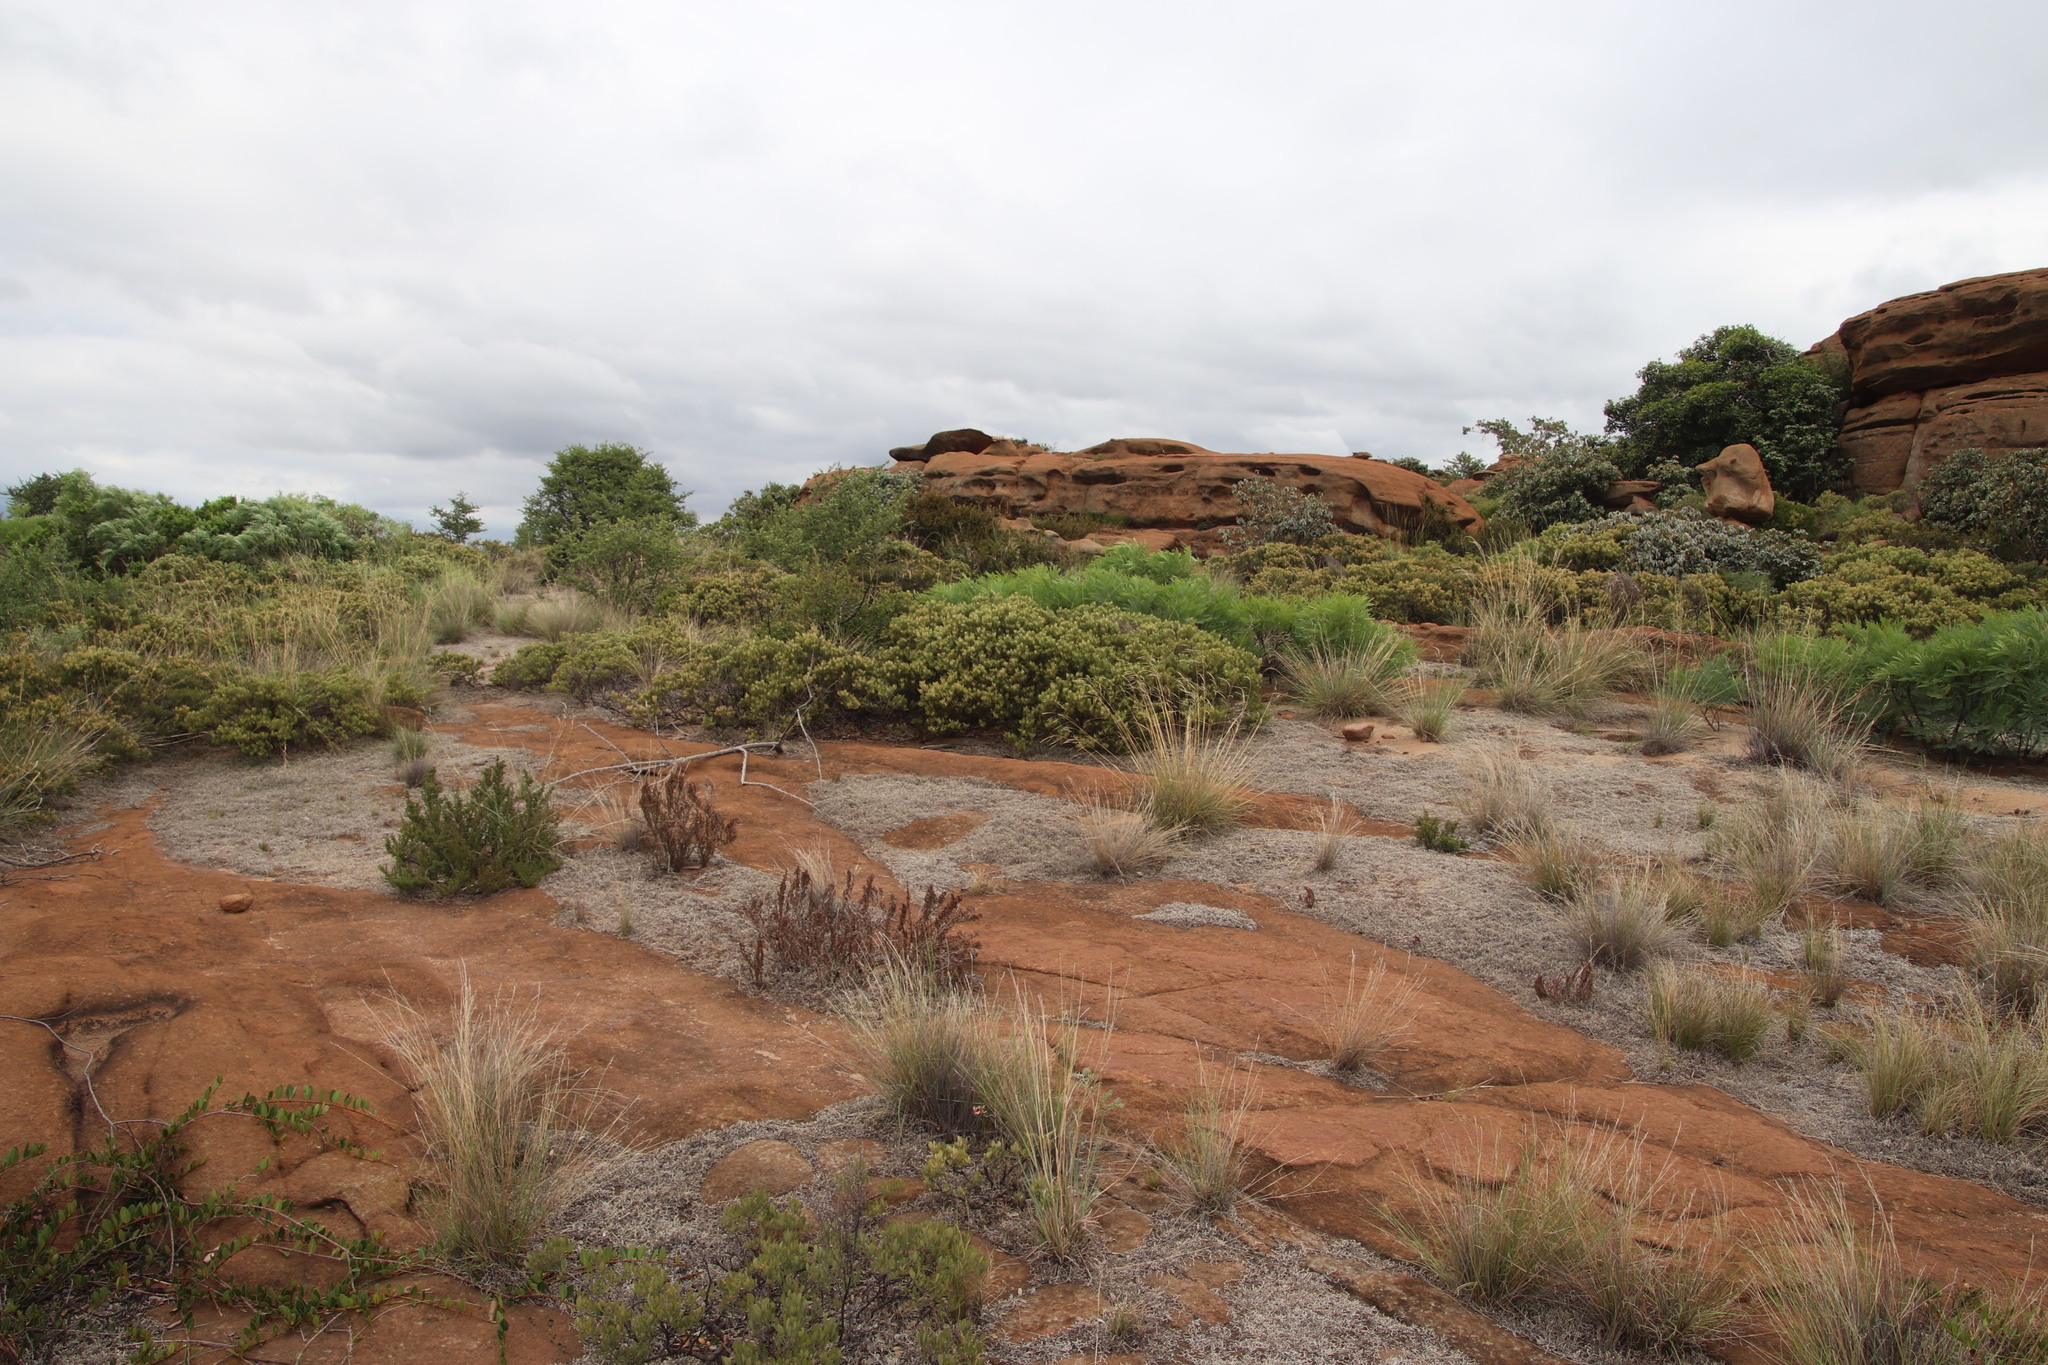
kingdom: Plantae
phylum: Tracheophyta
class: Lycopodiopsida
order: Selaginellales
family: Selaginellaceae
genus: Selaginella
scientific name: Selaginella dregei
